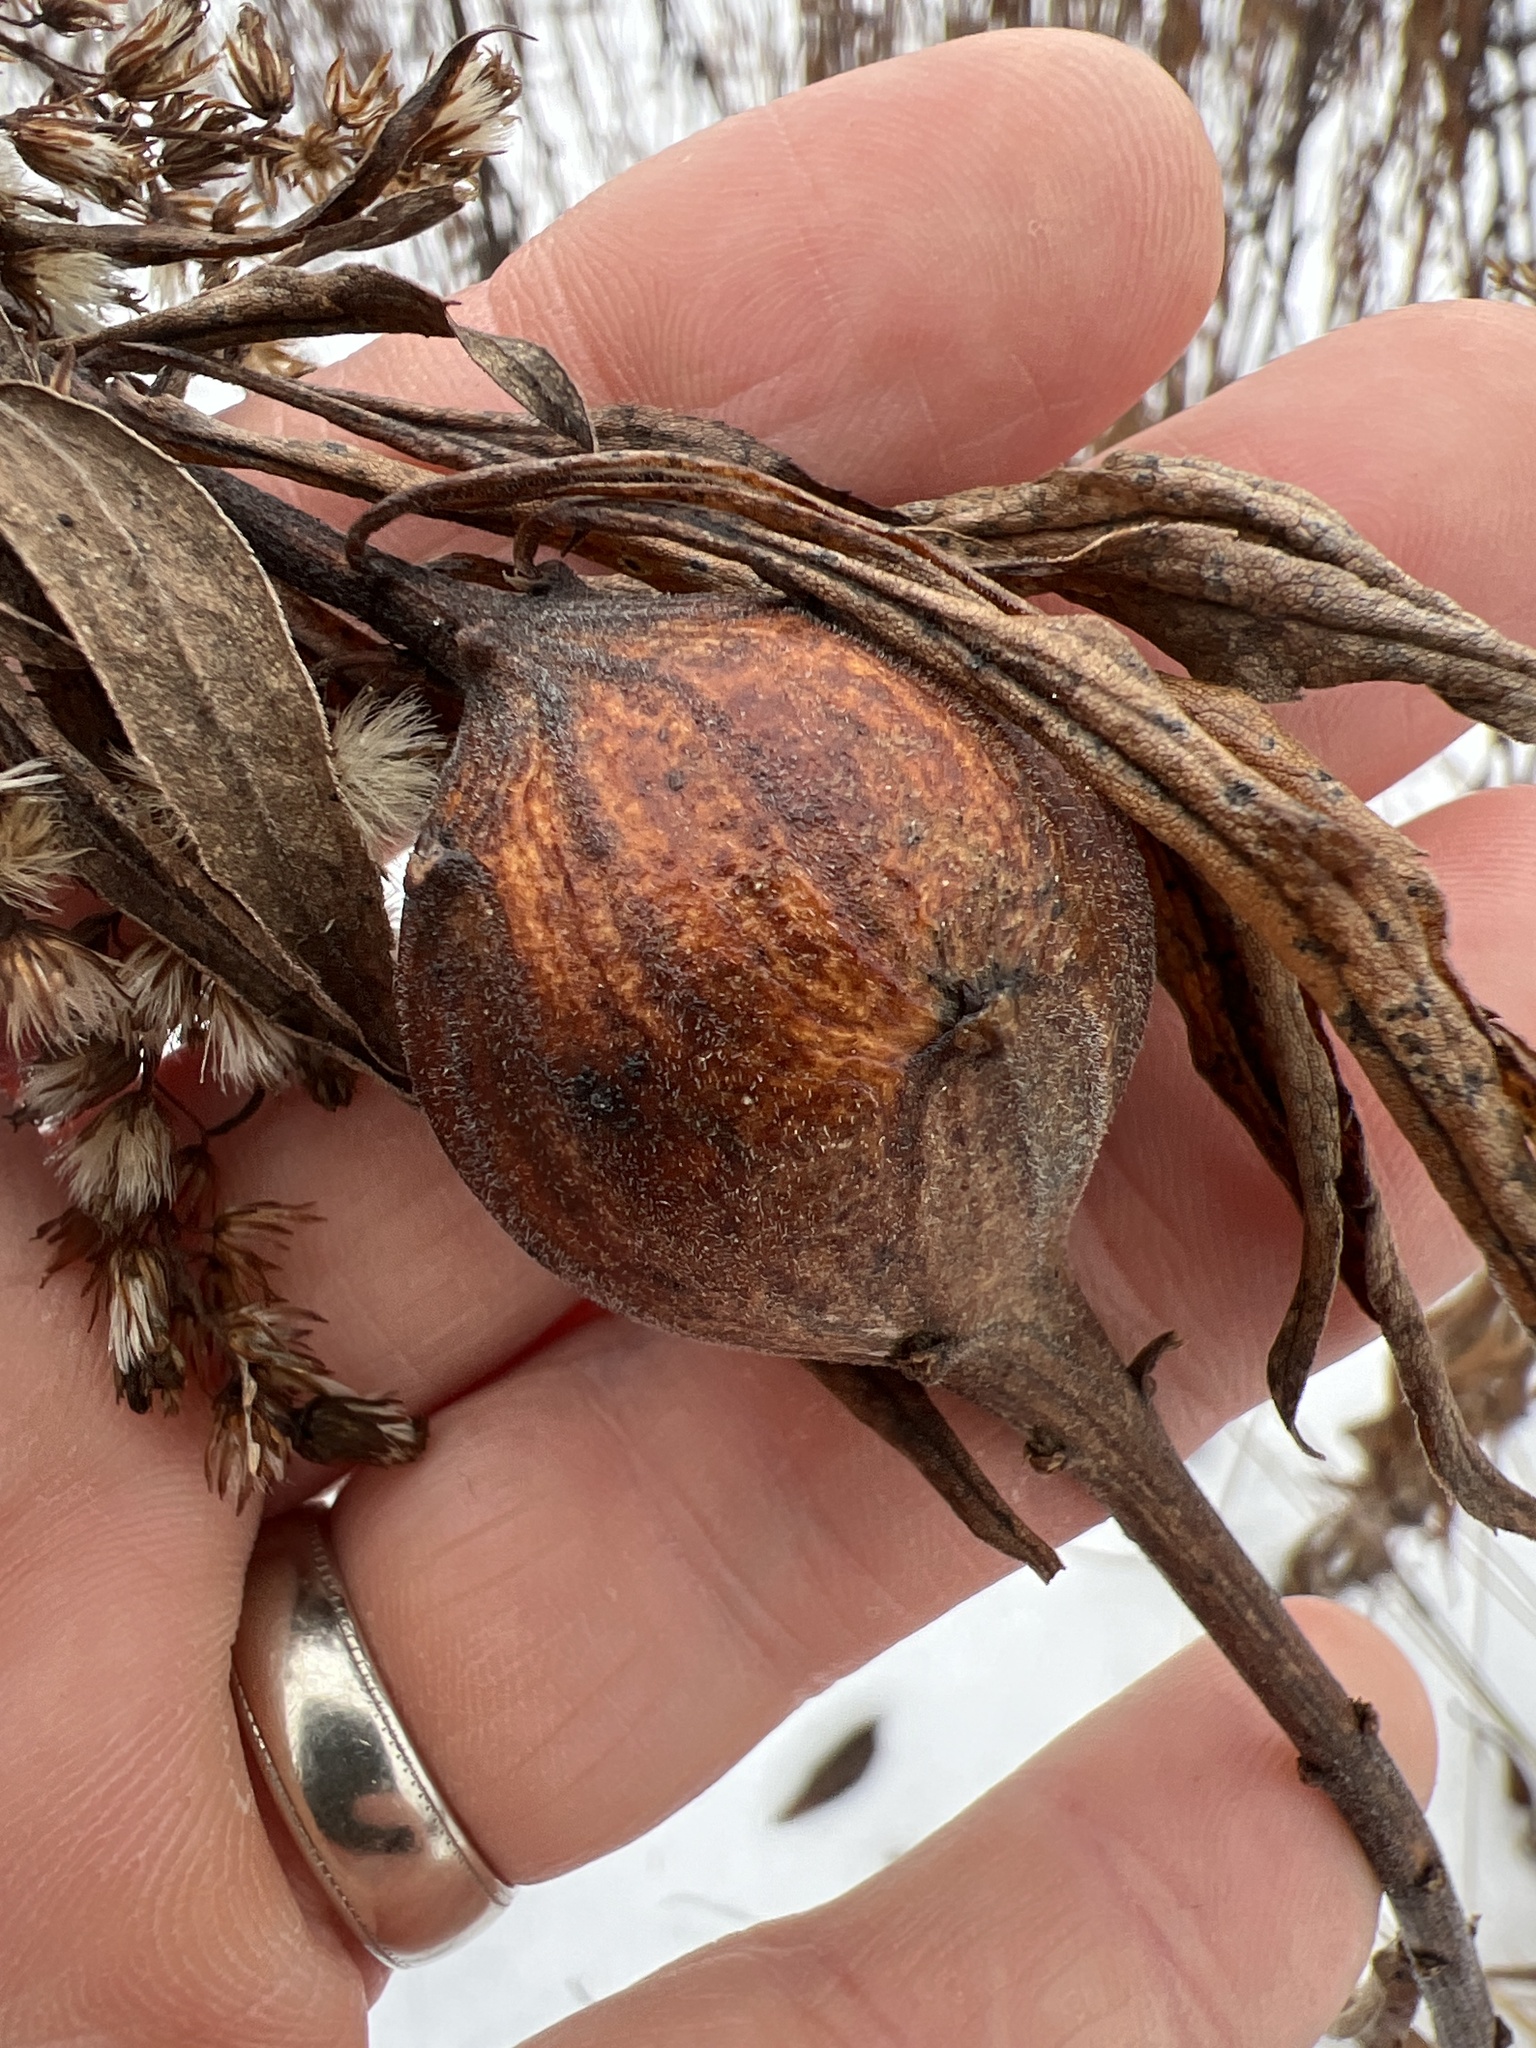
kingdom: Animalia
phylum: Arthropoda
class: Insecta
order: Diptera
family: Tephritidae
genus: Eurosta
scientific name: Eurosta solidaginis
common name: Goldenrod gall fly
